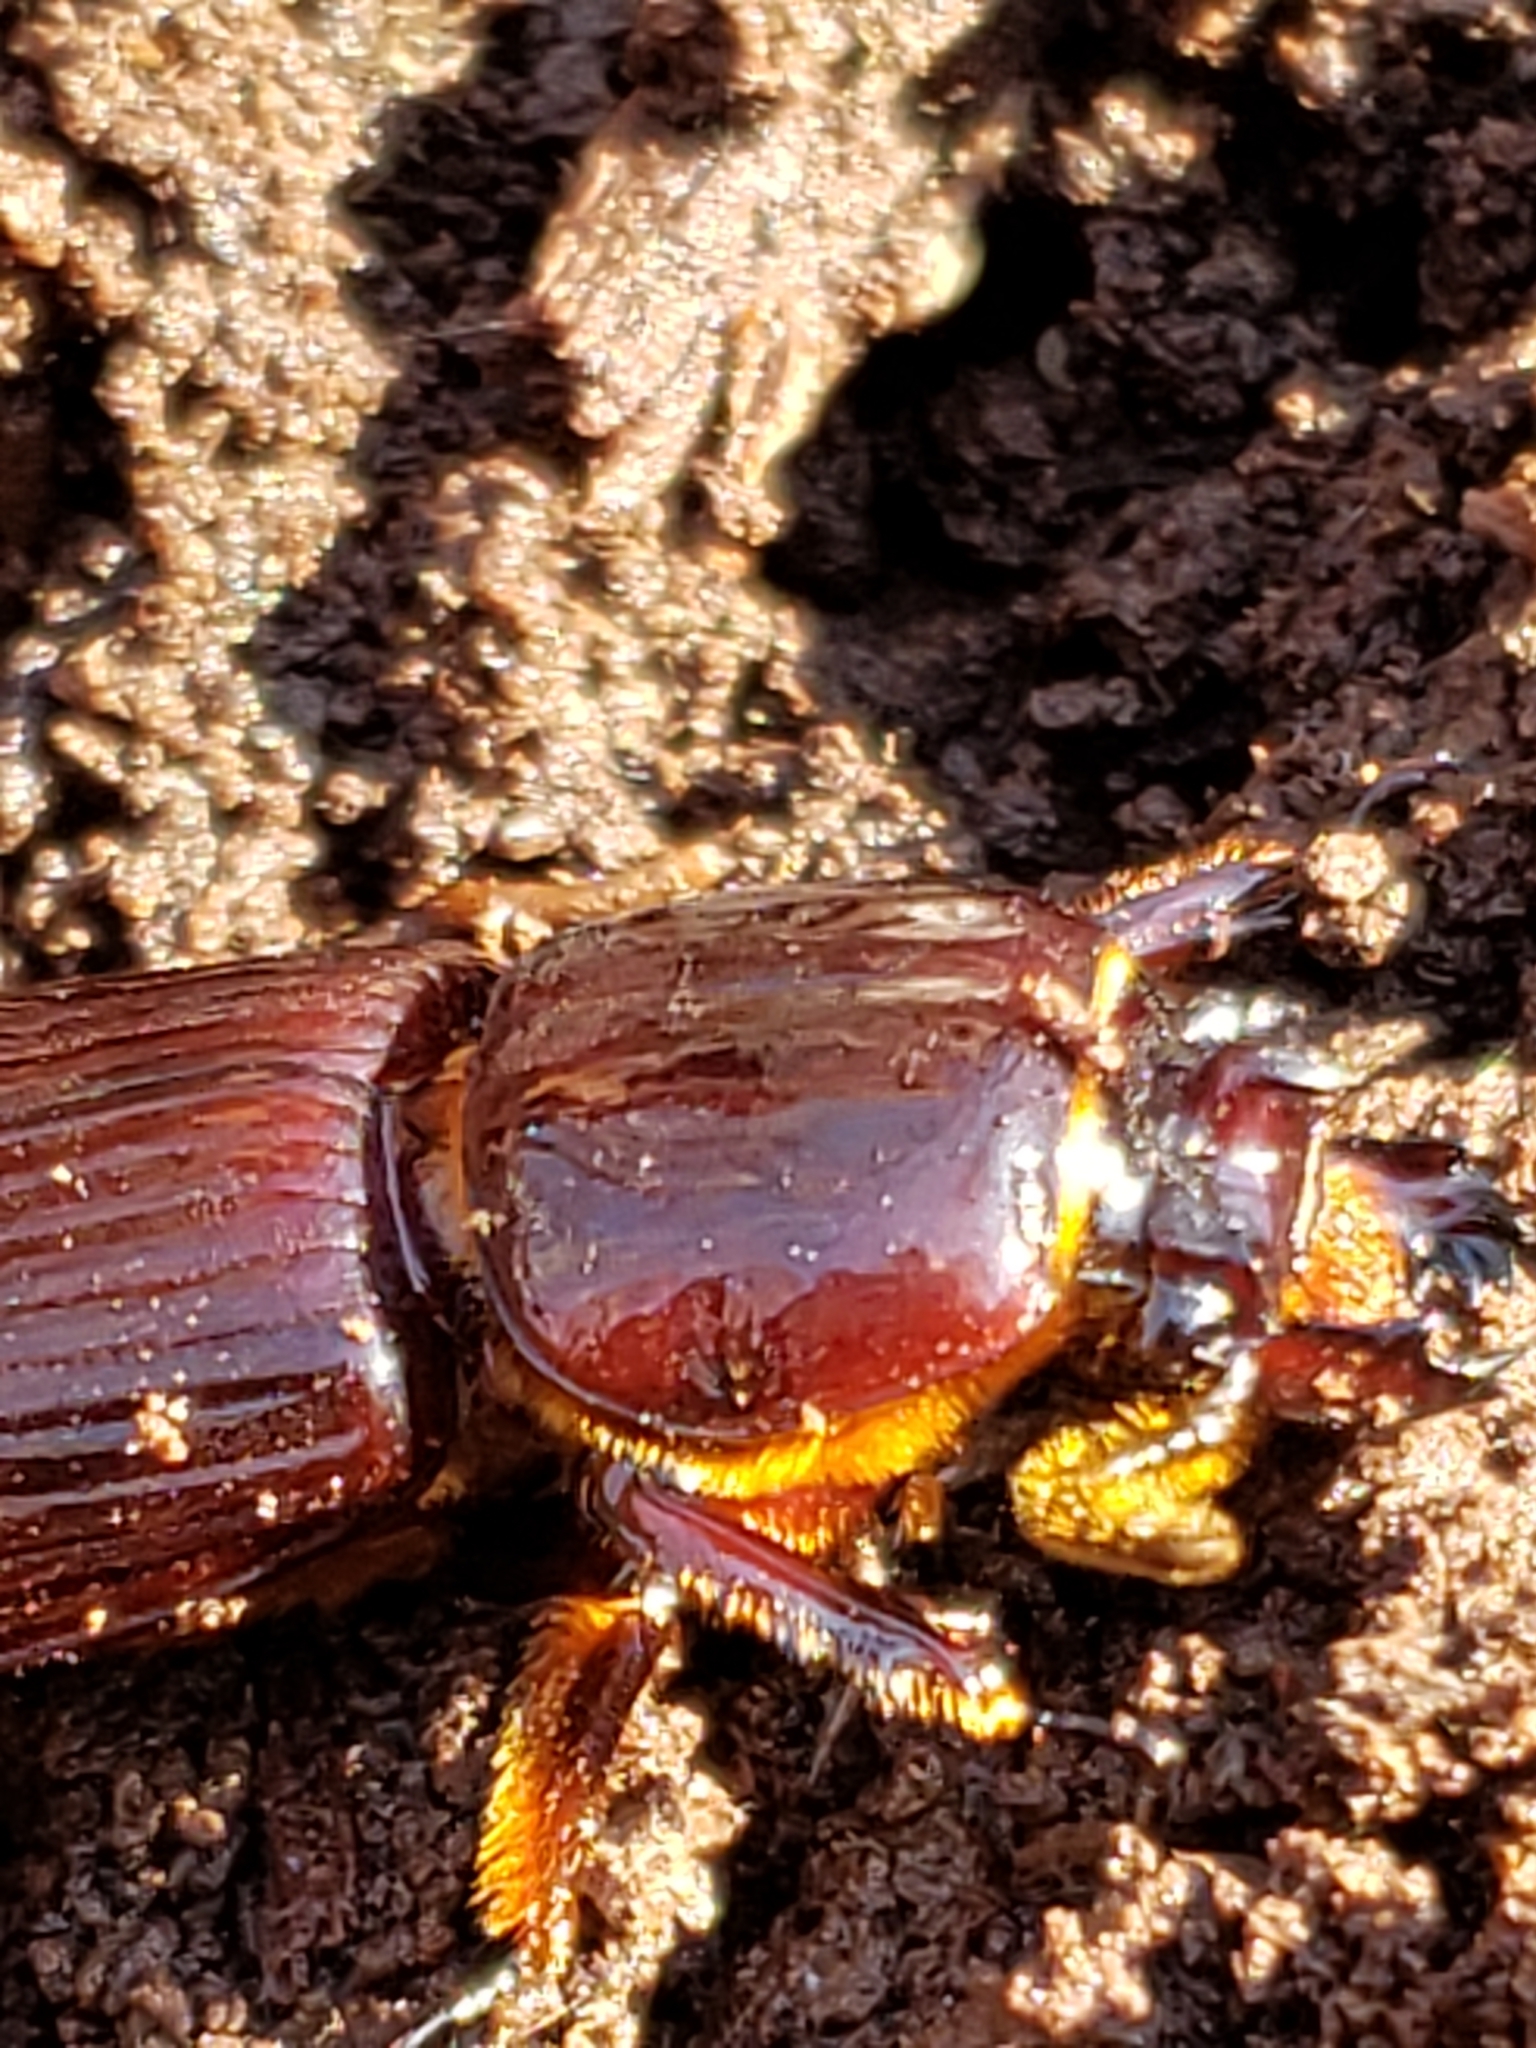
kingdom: Animalia
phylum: Arthropoda
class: Insecta
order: Coleoptera
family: Passalidae
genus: Odontotaenius
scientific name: Odontotaenius disjunctus
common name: Patent leather beetle
